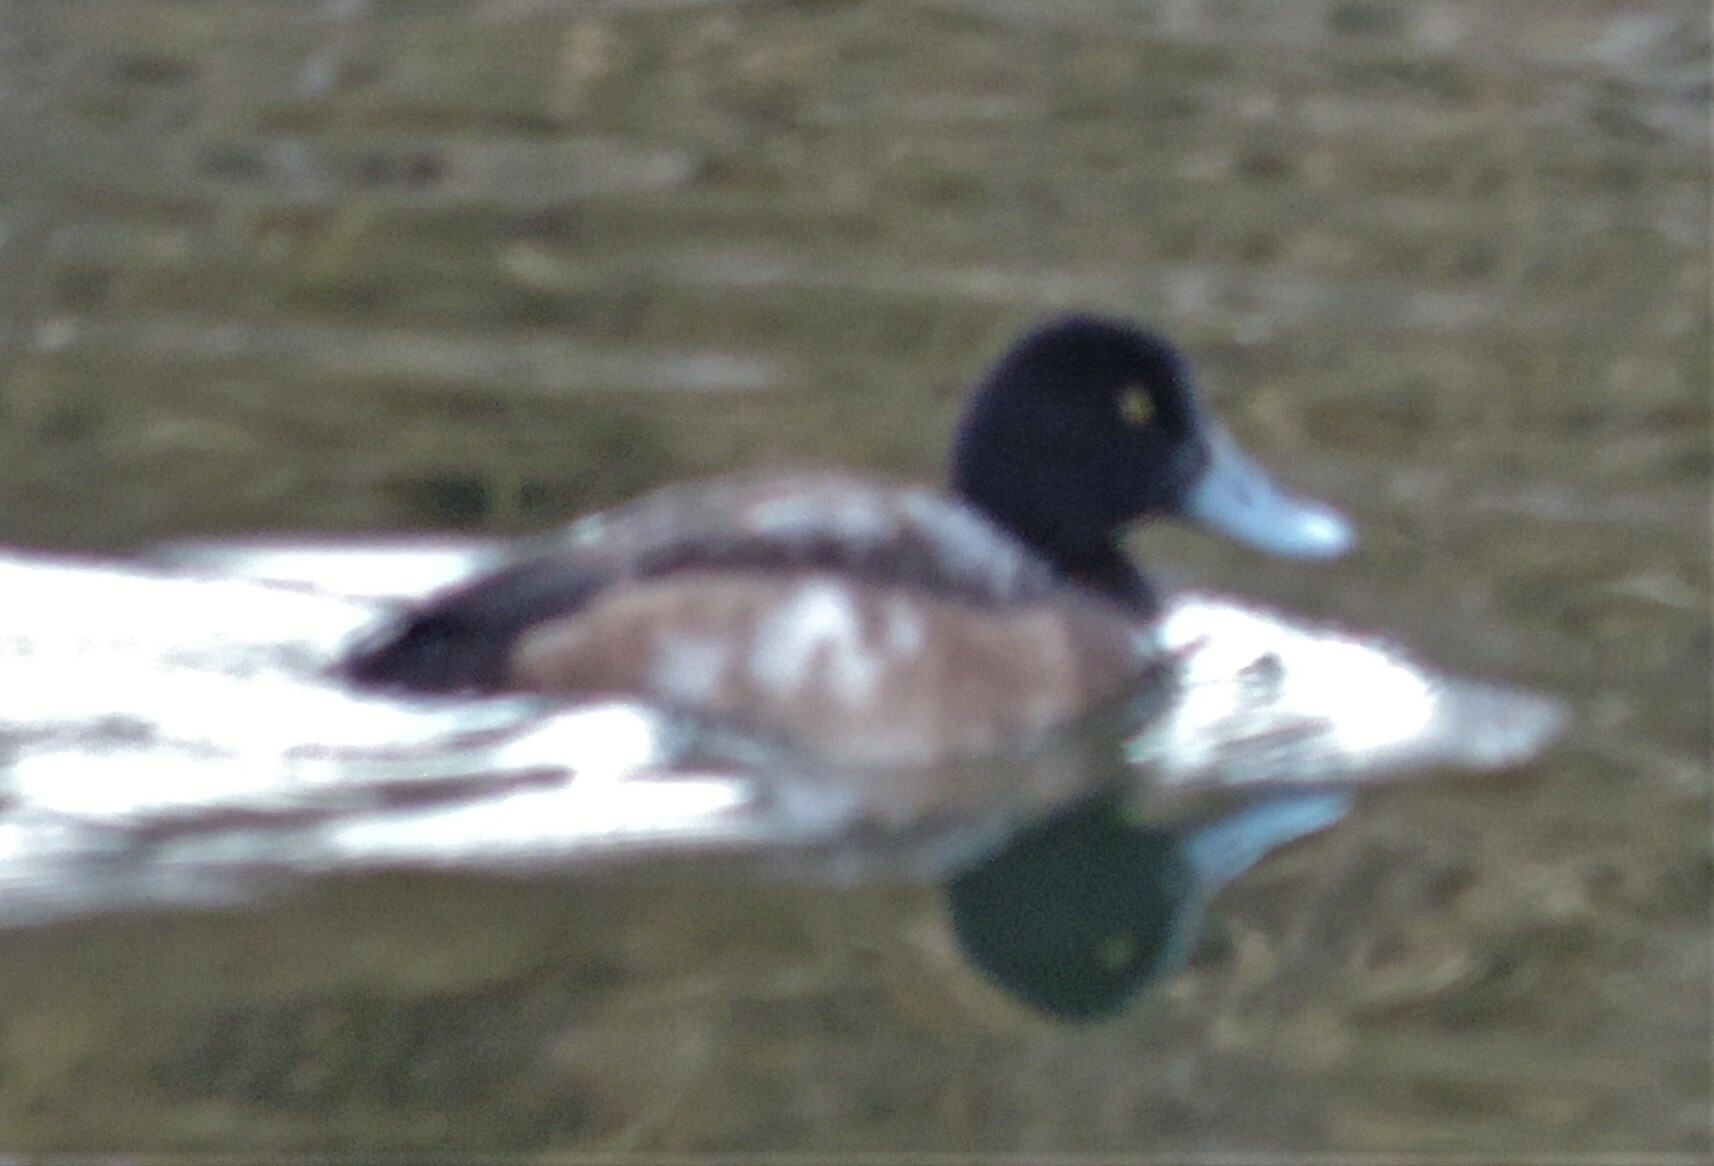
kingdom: Animalia
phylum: Chordata
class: Aves
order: Anseriformes
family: Anatidae
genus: Aythya
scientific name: Aythya marila
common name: Greater scaup
